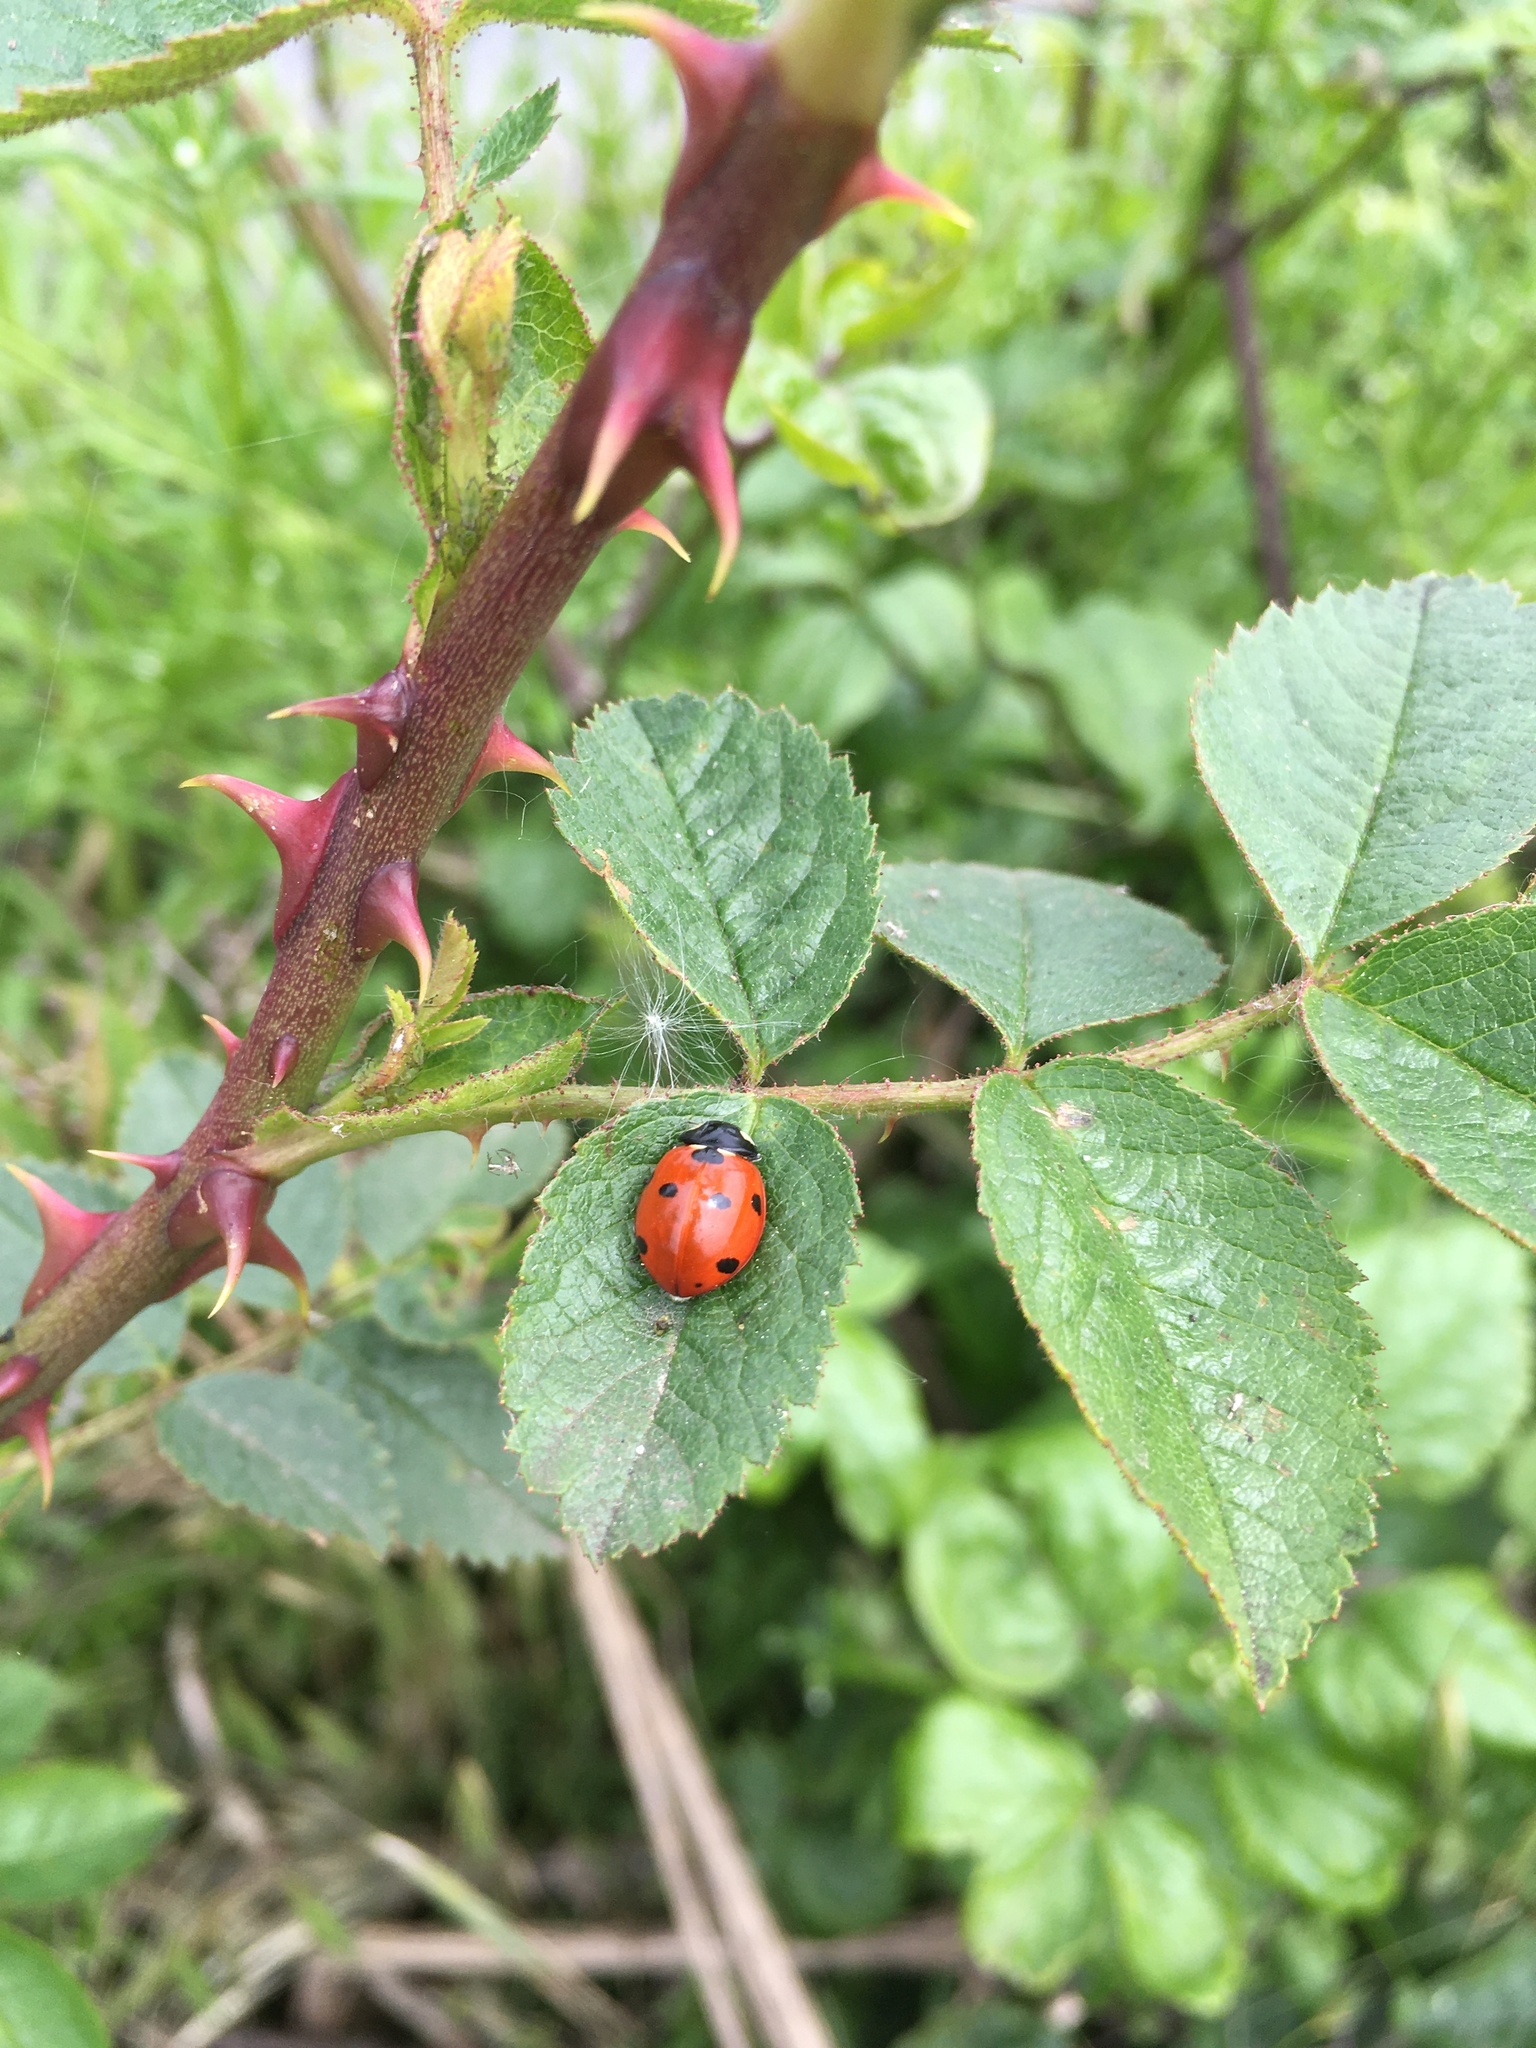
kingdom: Animalia
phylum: Arthropoda
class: Insecta
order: Coleoptera
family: Coccinellidae
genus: Coccinella
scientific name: Coccinella septempunctata
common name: Sevenspotted lady beetle
